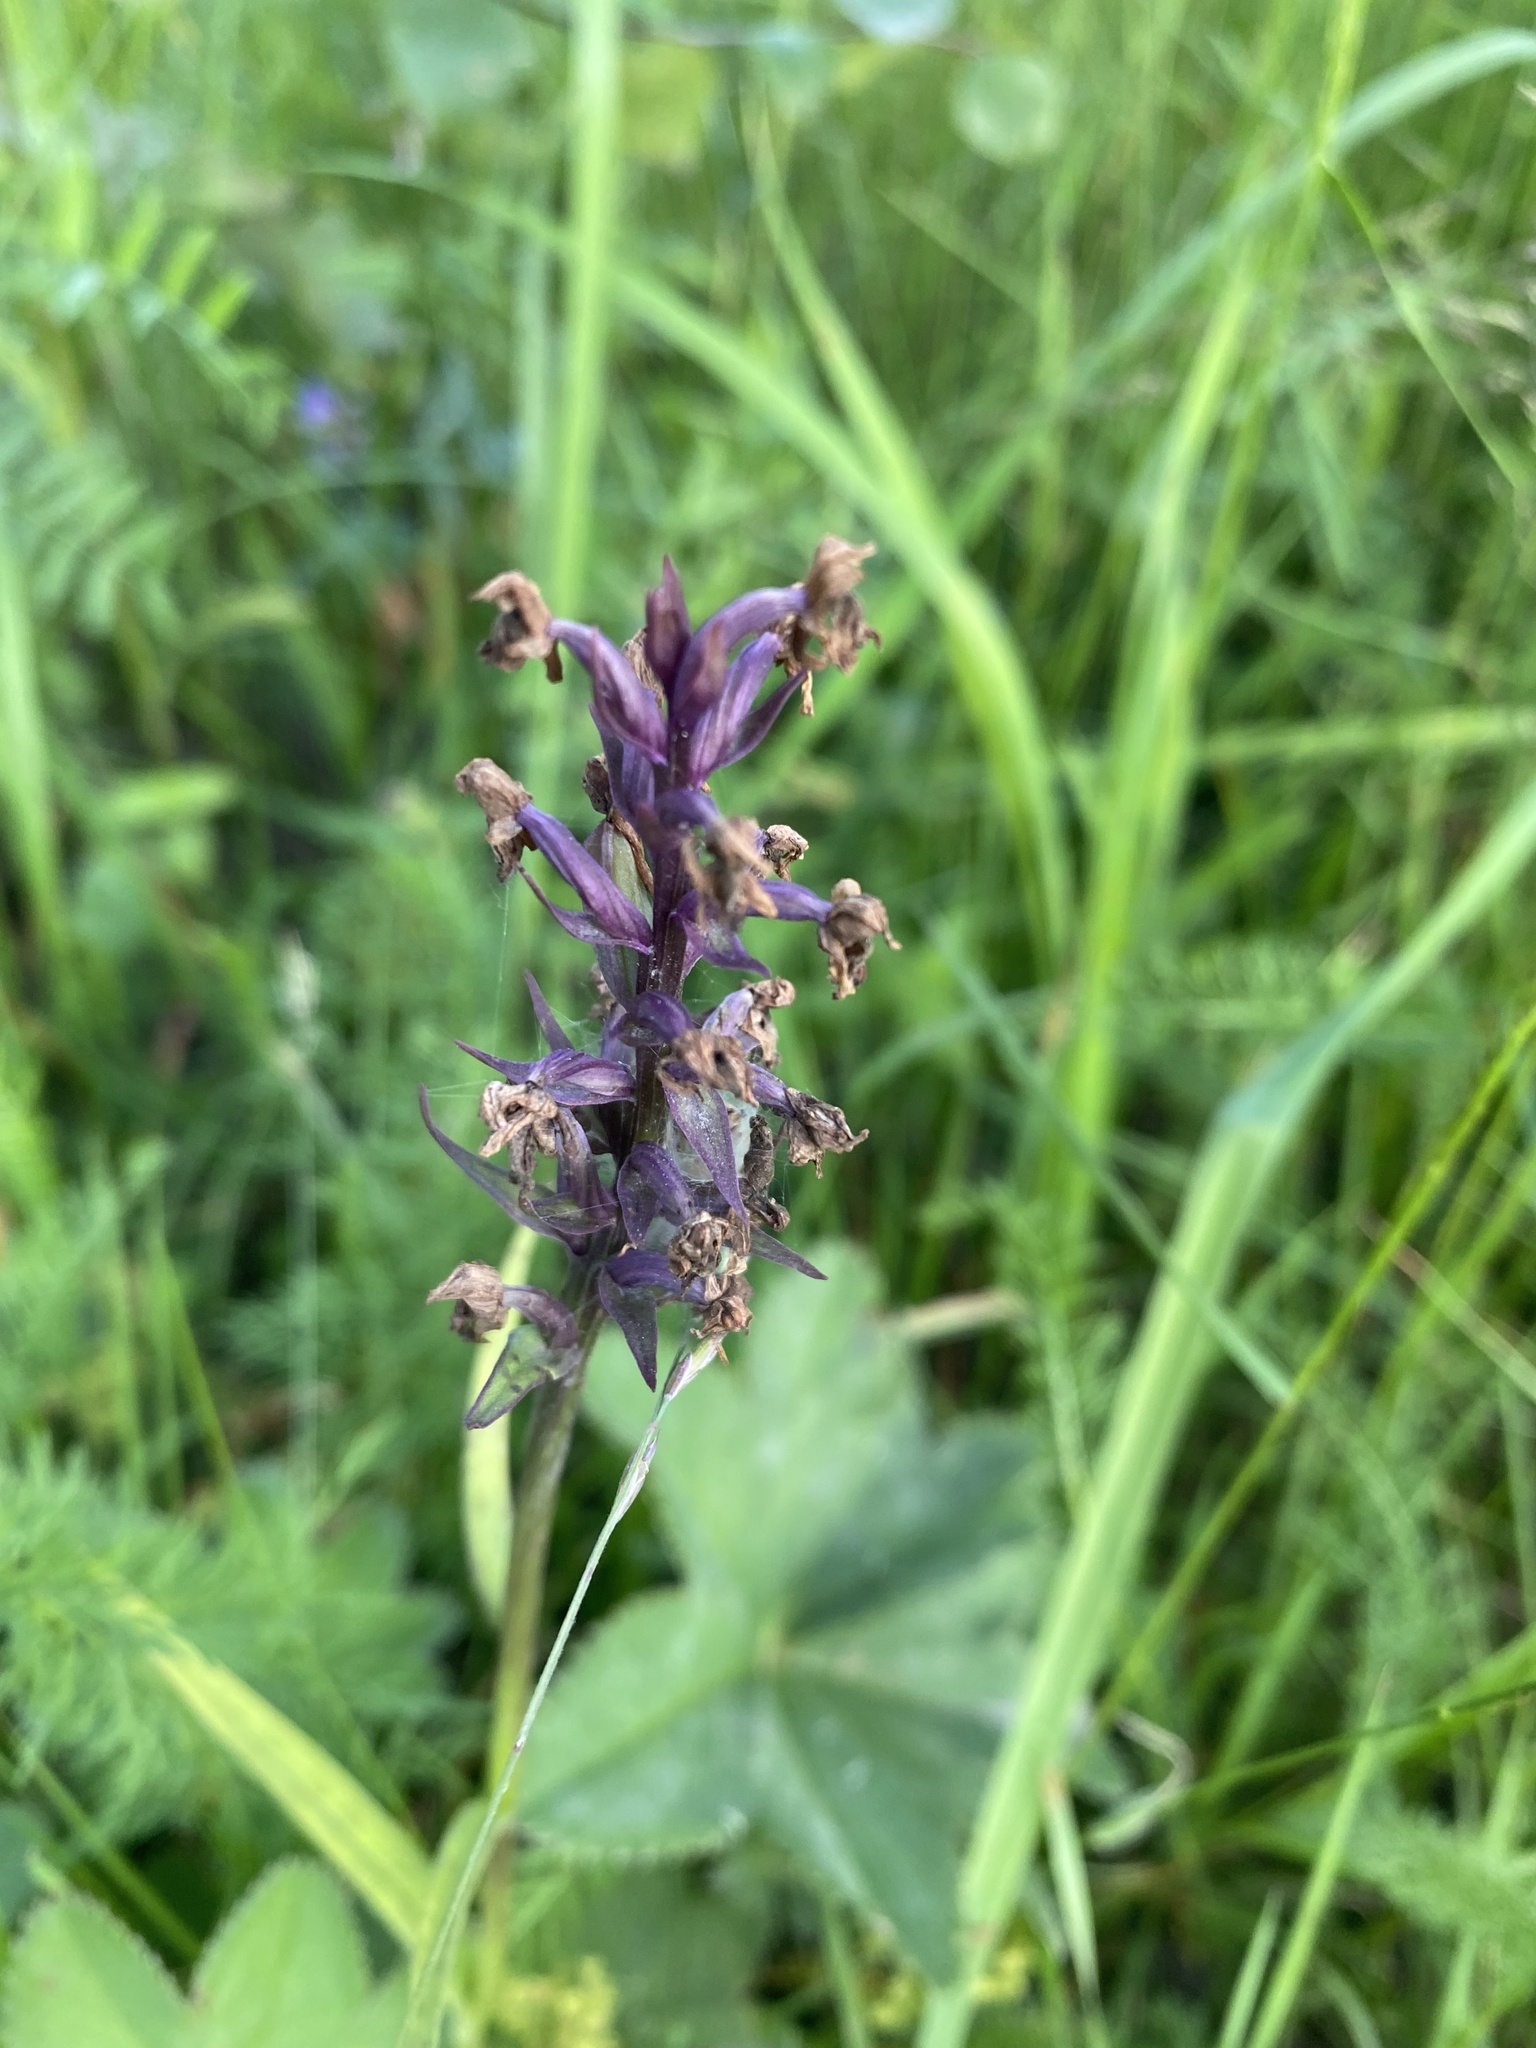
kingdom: Plantae
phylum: Tracheophyta
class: Liliopsida
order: Asparagales
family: Orchidaceae
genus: Dactylorhiza
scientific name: Dactylorhiza maculata
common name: Heath spotted-orchid
